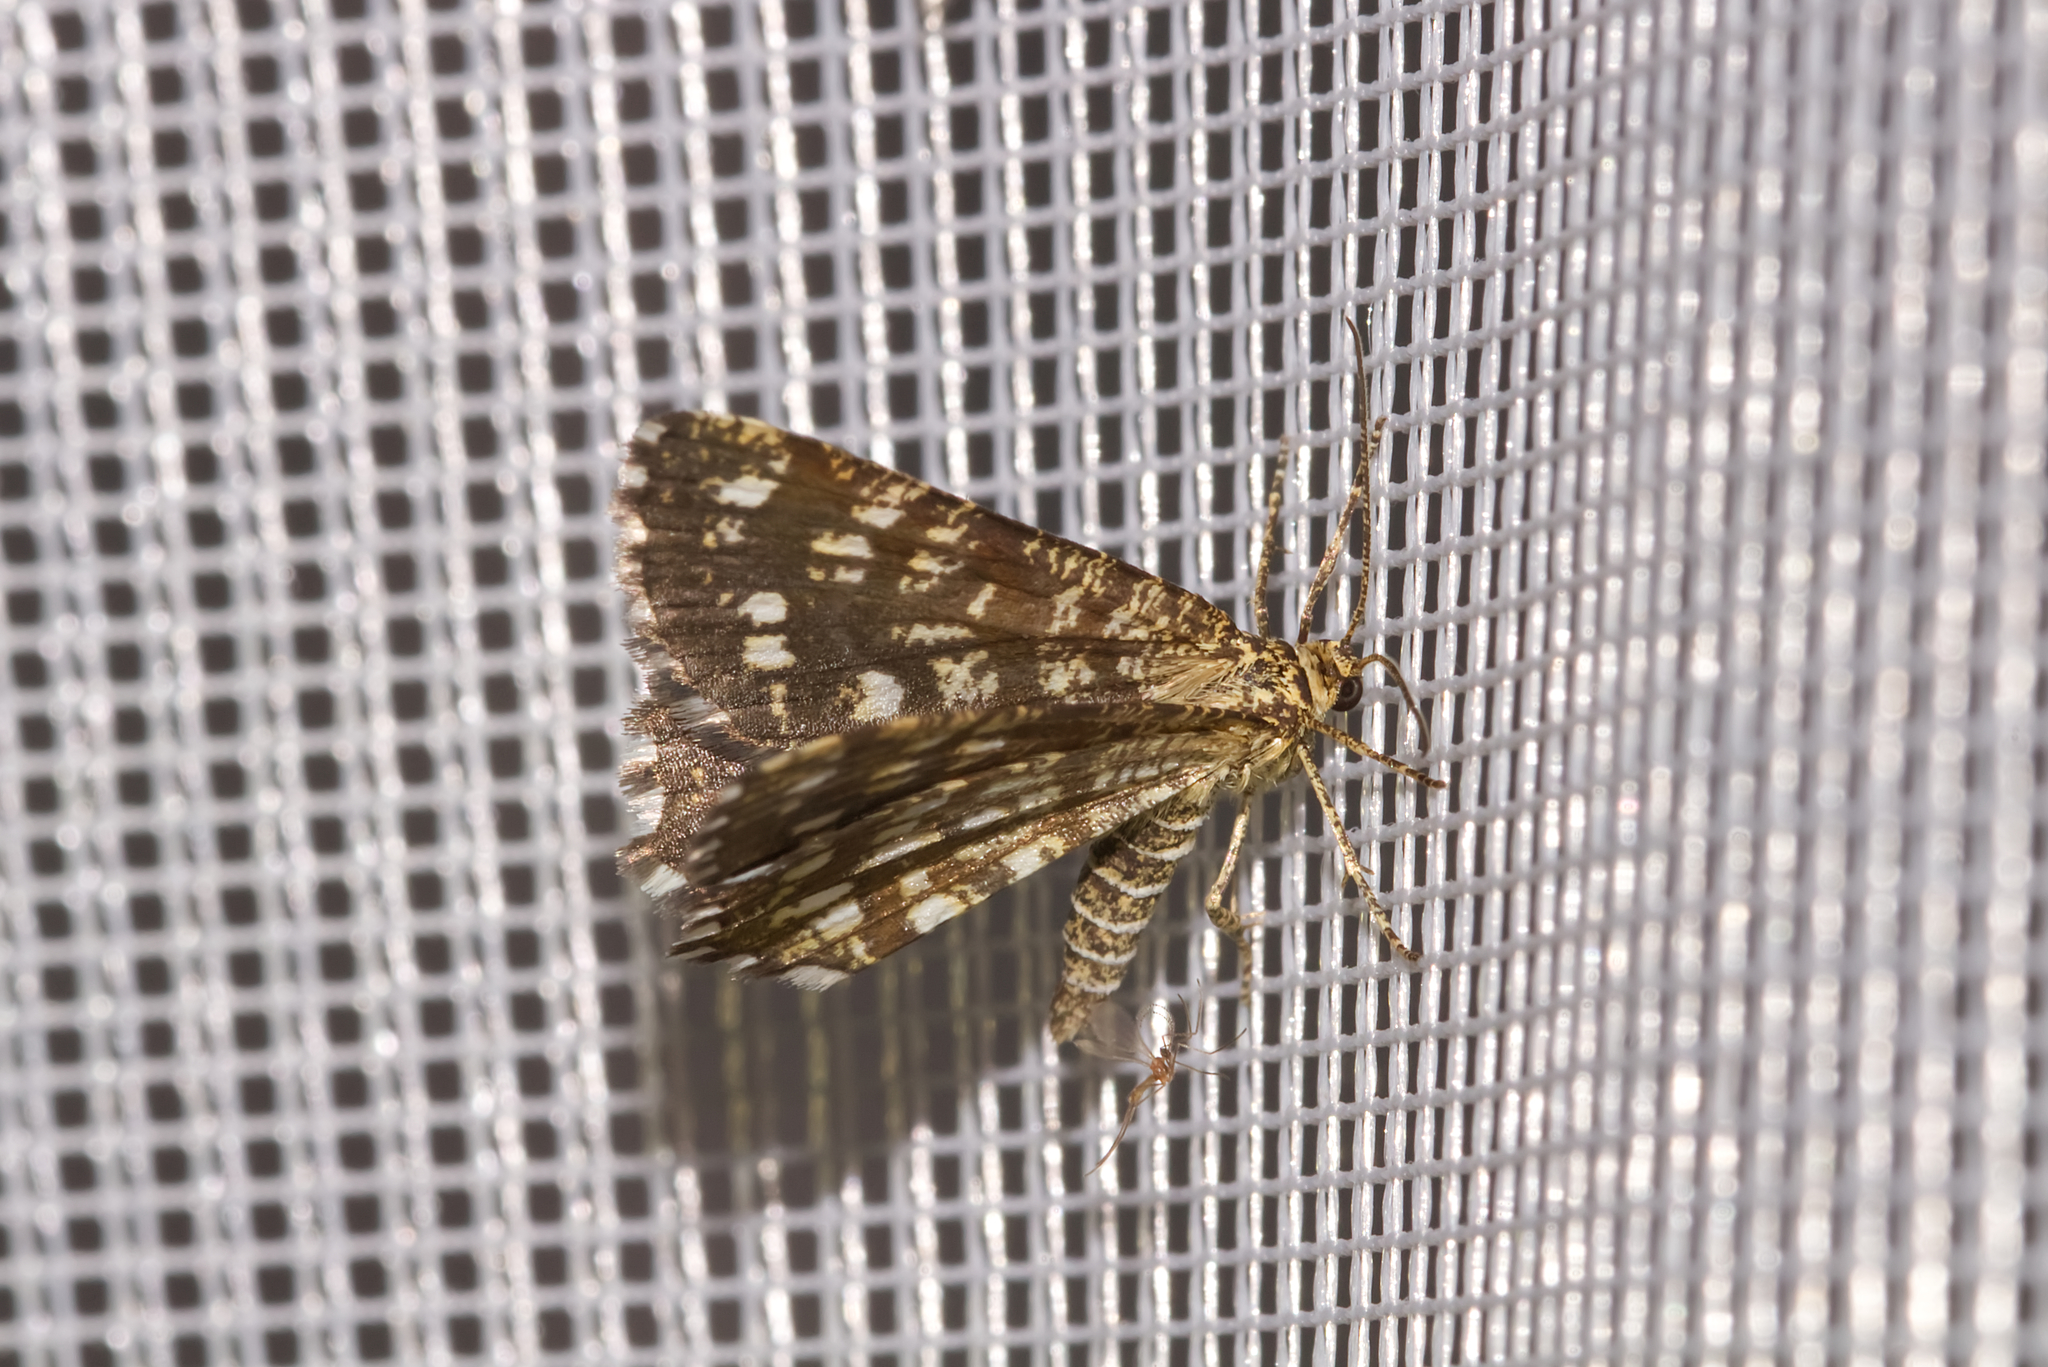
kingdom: Animalia
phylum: Arthropoda
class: Insecta
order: Lepidoptera
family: Geometridae
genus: Chiasmia
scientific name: Chiasmia clathrata
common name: Latticed heath
